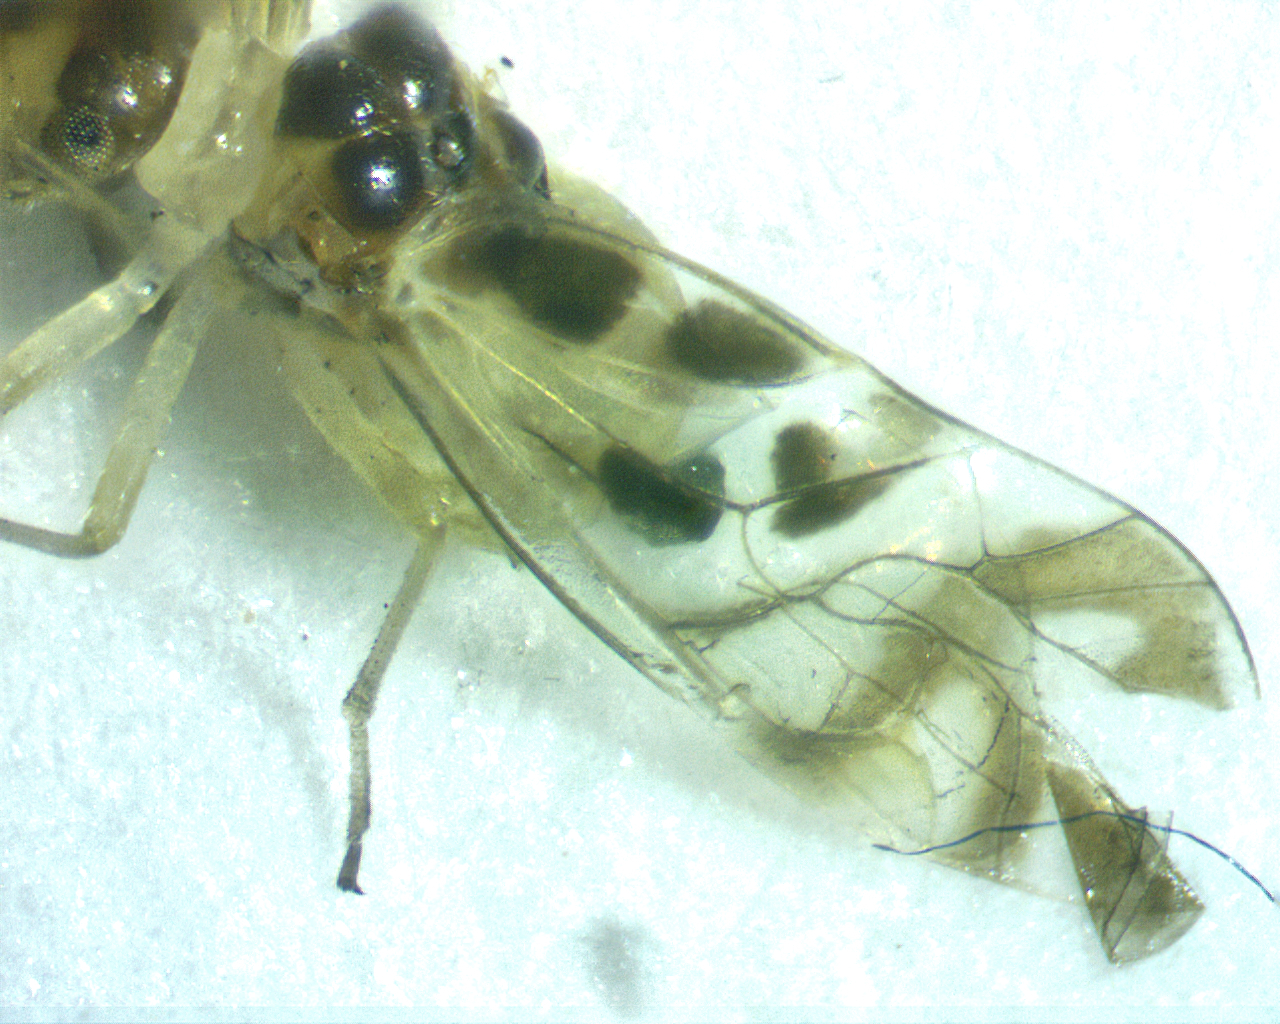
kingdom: Animalia
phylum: Arthropoda
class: Insecta
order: Psocodea
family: Stenopsocidae
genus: Graphopsocus
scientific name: Graphopsocus cruciatus
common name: Lizard bark louse
